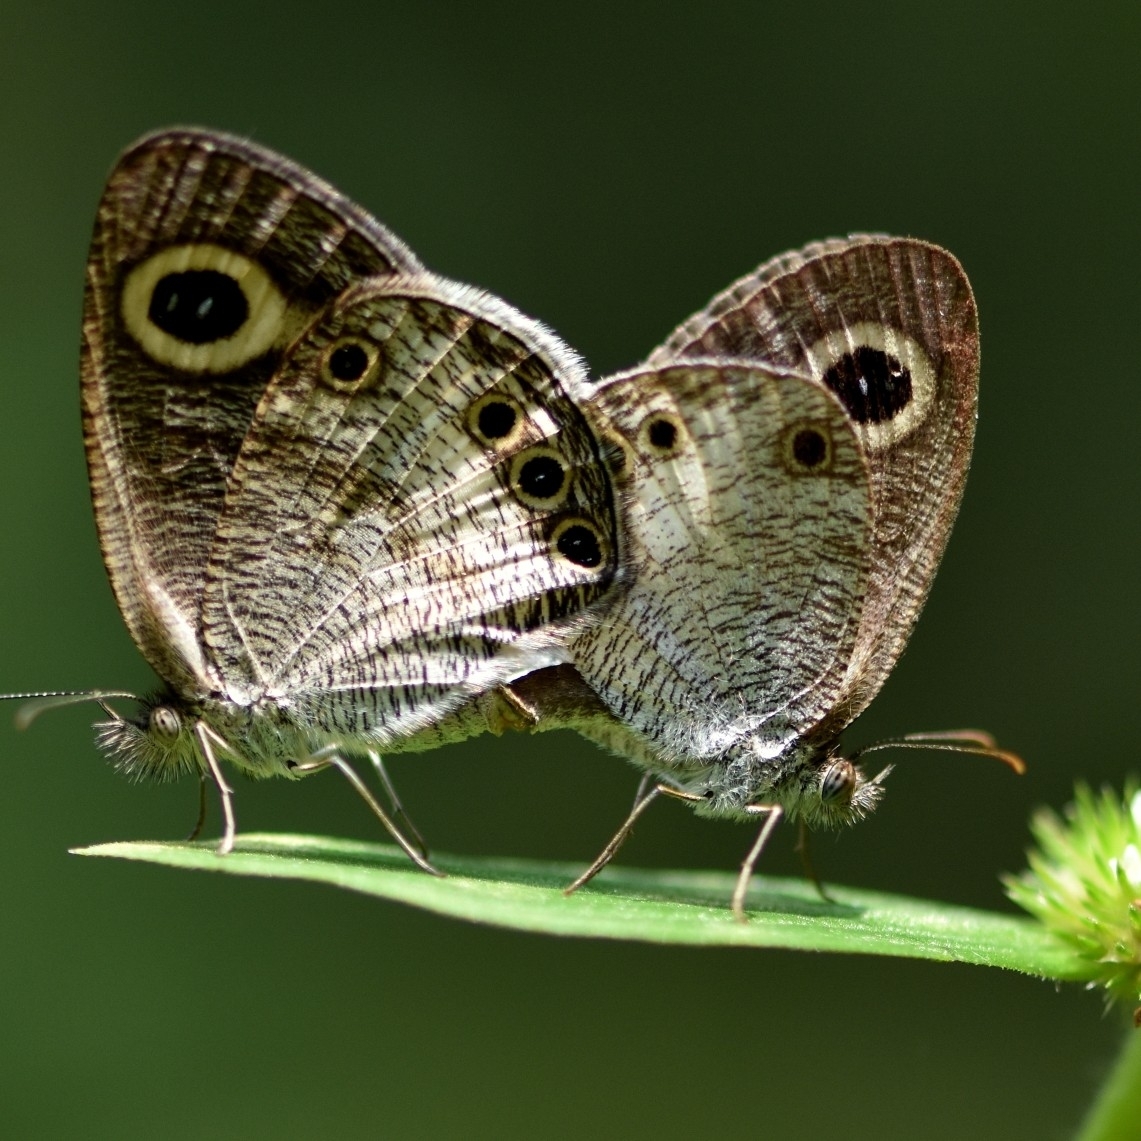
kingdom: Animalia
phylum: Arthropoda
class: Insecta
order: Lepidoptera
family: Nymphalidae
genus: Ypthima
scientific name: Ypthima ceylonica
